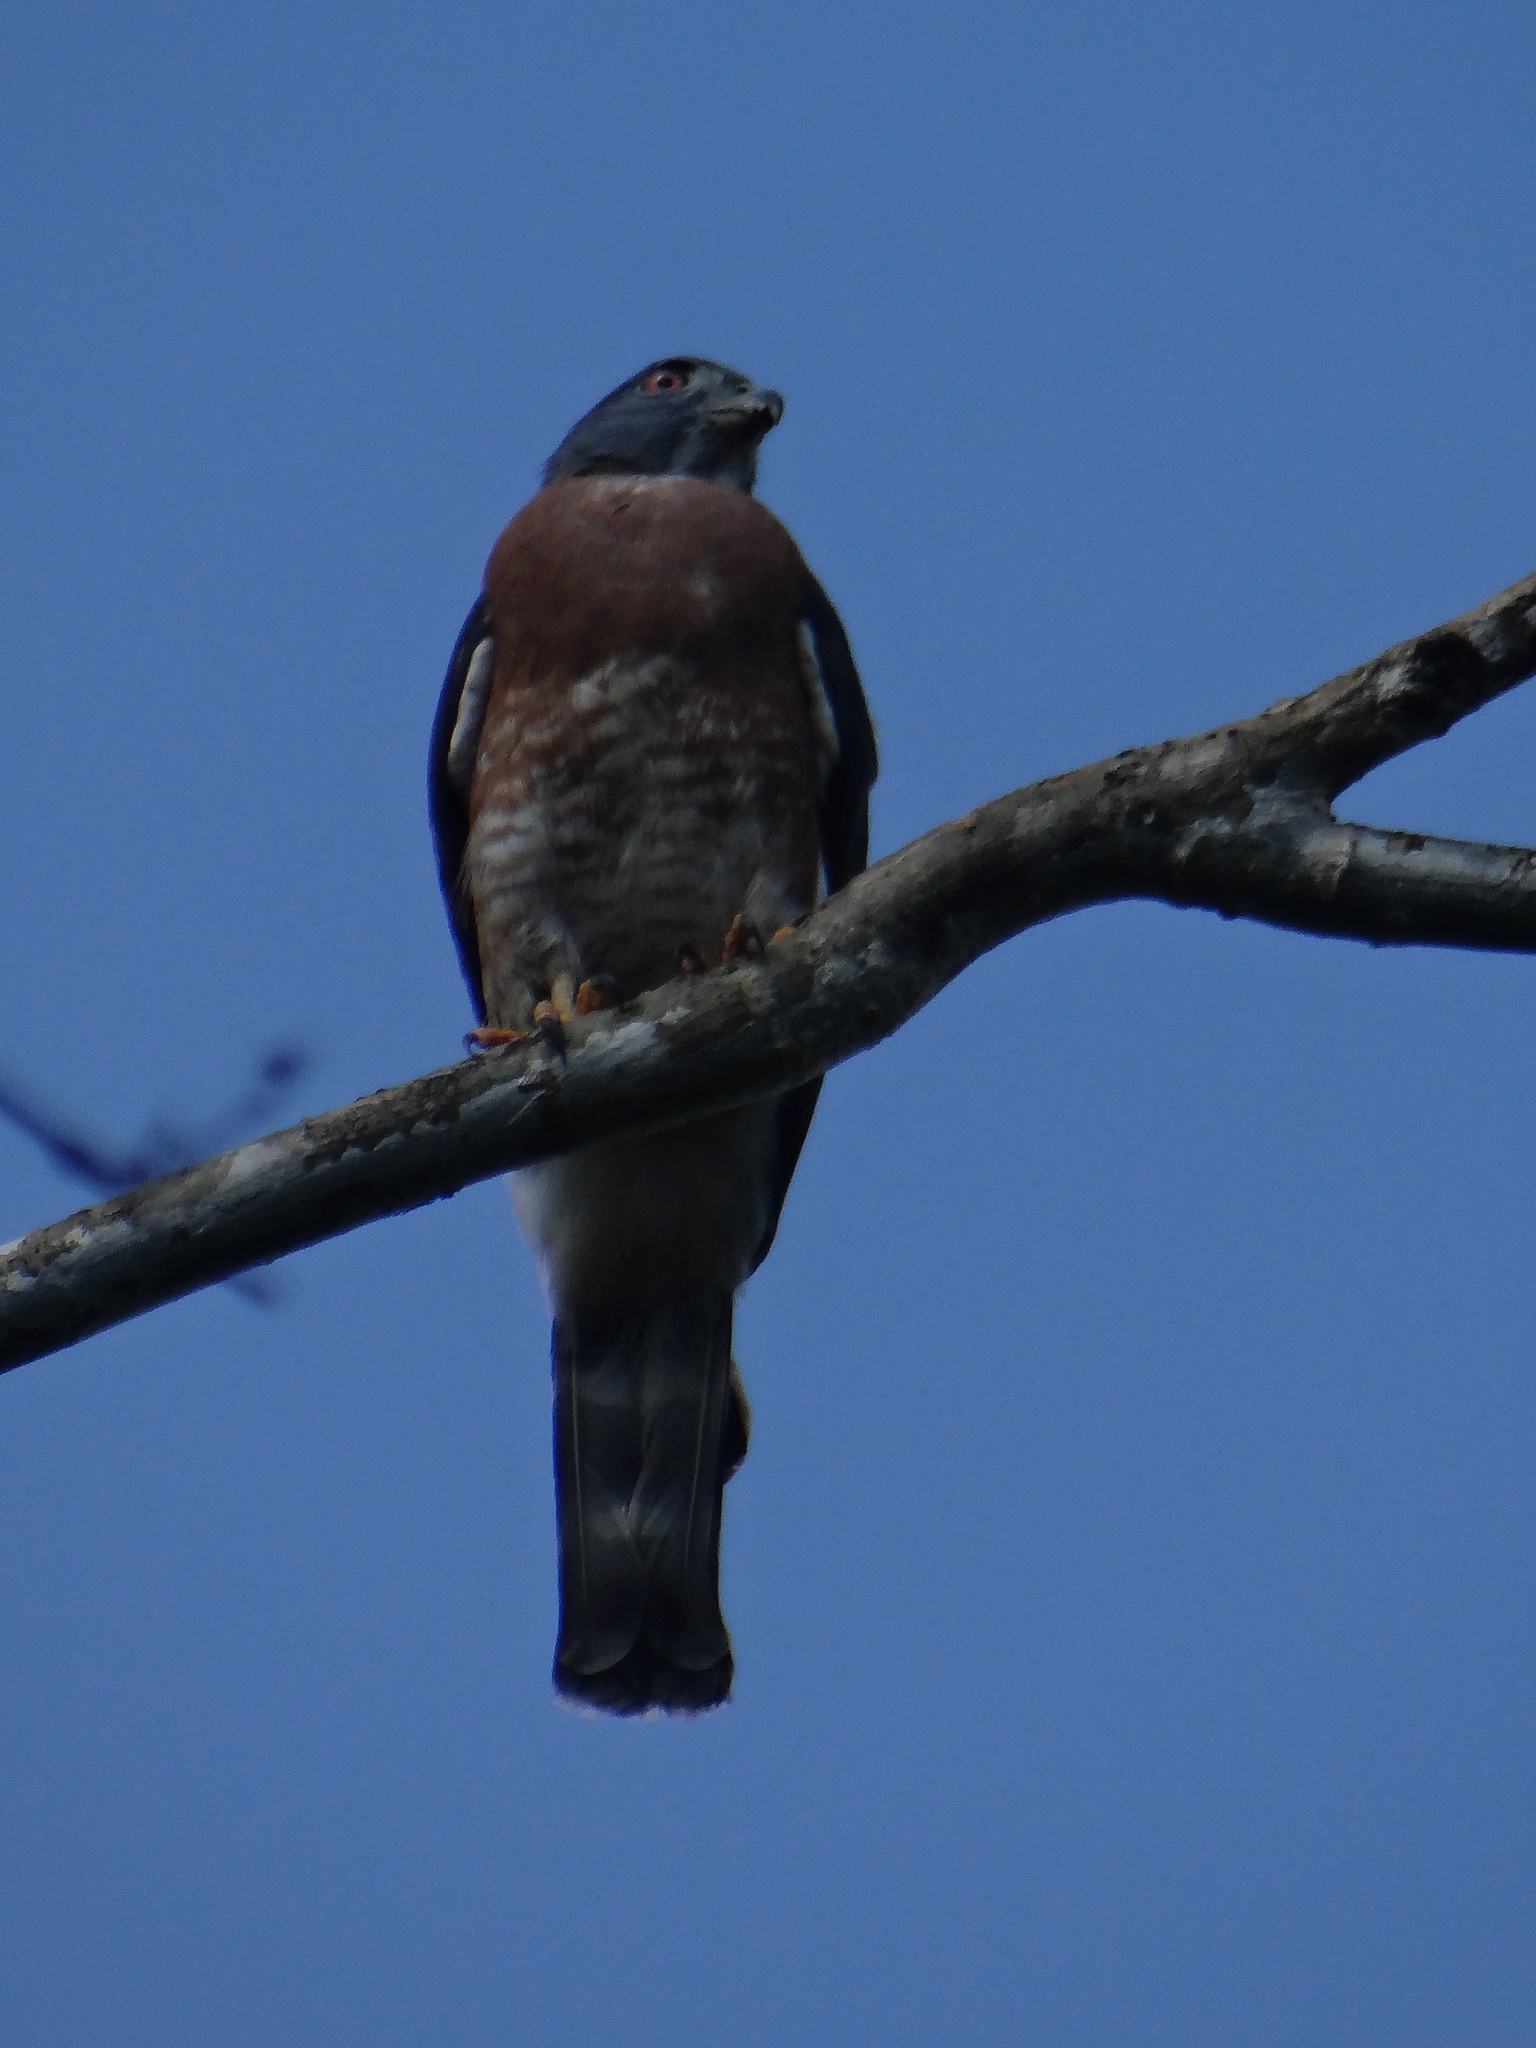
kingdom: Animalia
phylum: Chordata
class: Aves
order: Accipitriformes
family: Accipitridae
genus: Harpagus
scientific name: Harpagus bidentatus
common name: Double-toothed kite
